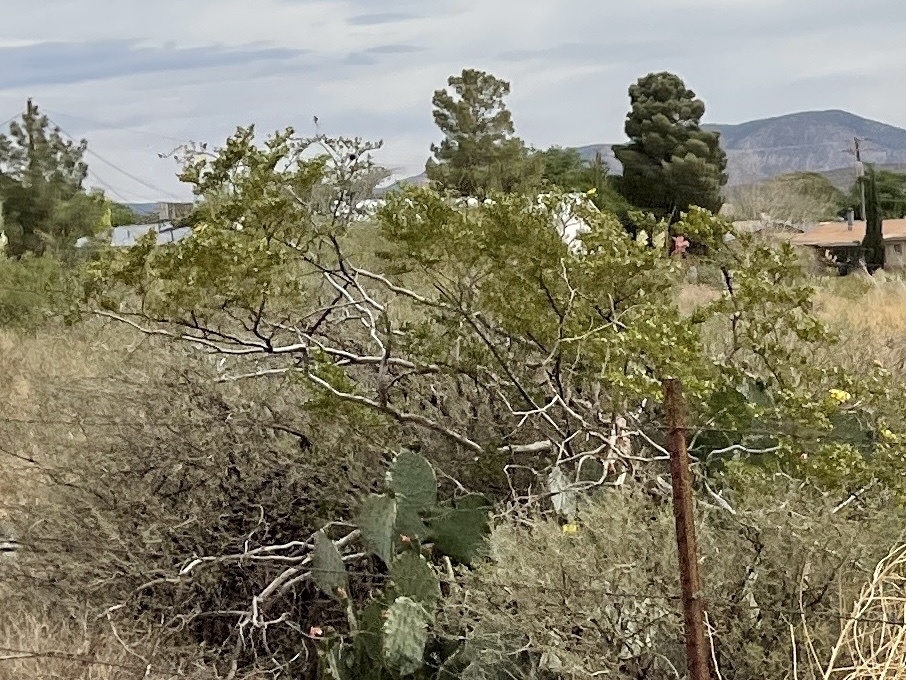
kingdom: Plantae
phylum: Tracheophyta
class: Magnoliopsida
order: Zygophyllales
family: Zygophyllaceae
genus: Larrea
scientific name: Larrea tridentata
